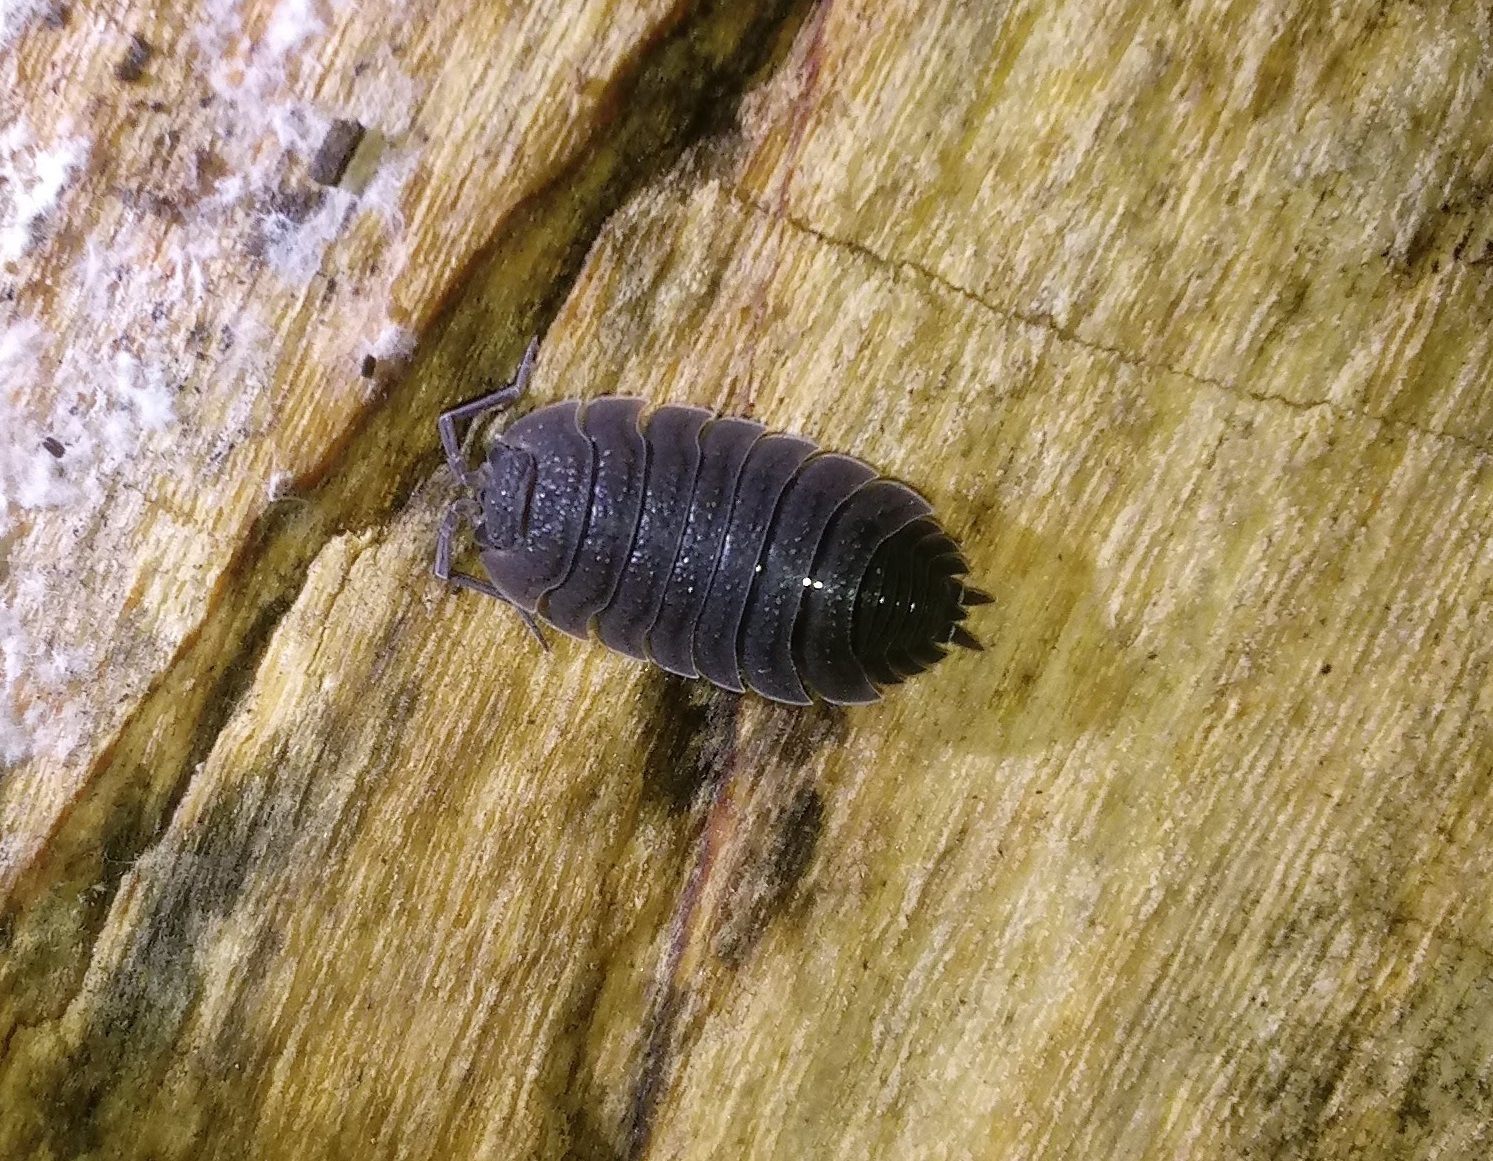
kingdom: Animalia
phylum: Arthropoda
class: Malacostraca
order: Isopoda
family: Porcellionidae
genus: Porcellio
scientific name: Porcellio scaber
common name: Common rough woodlouse
